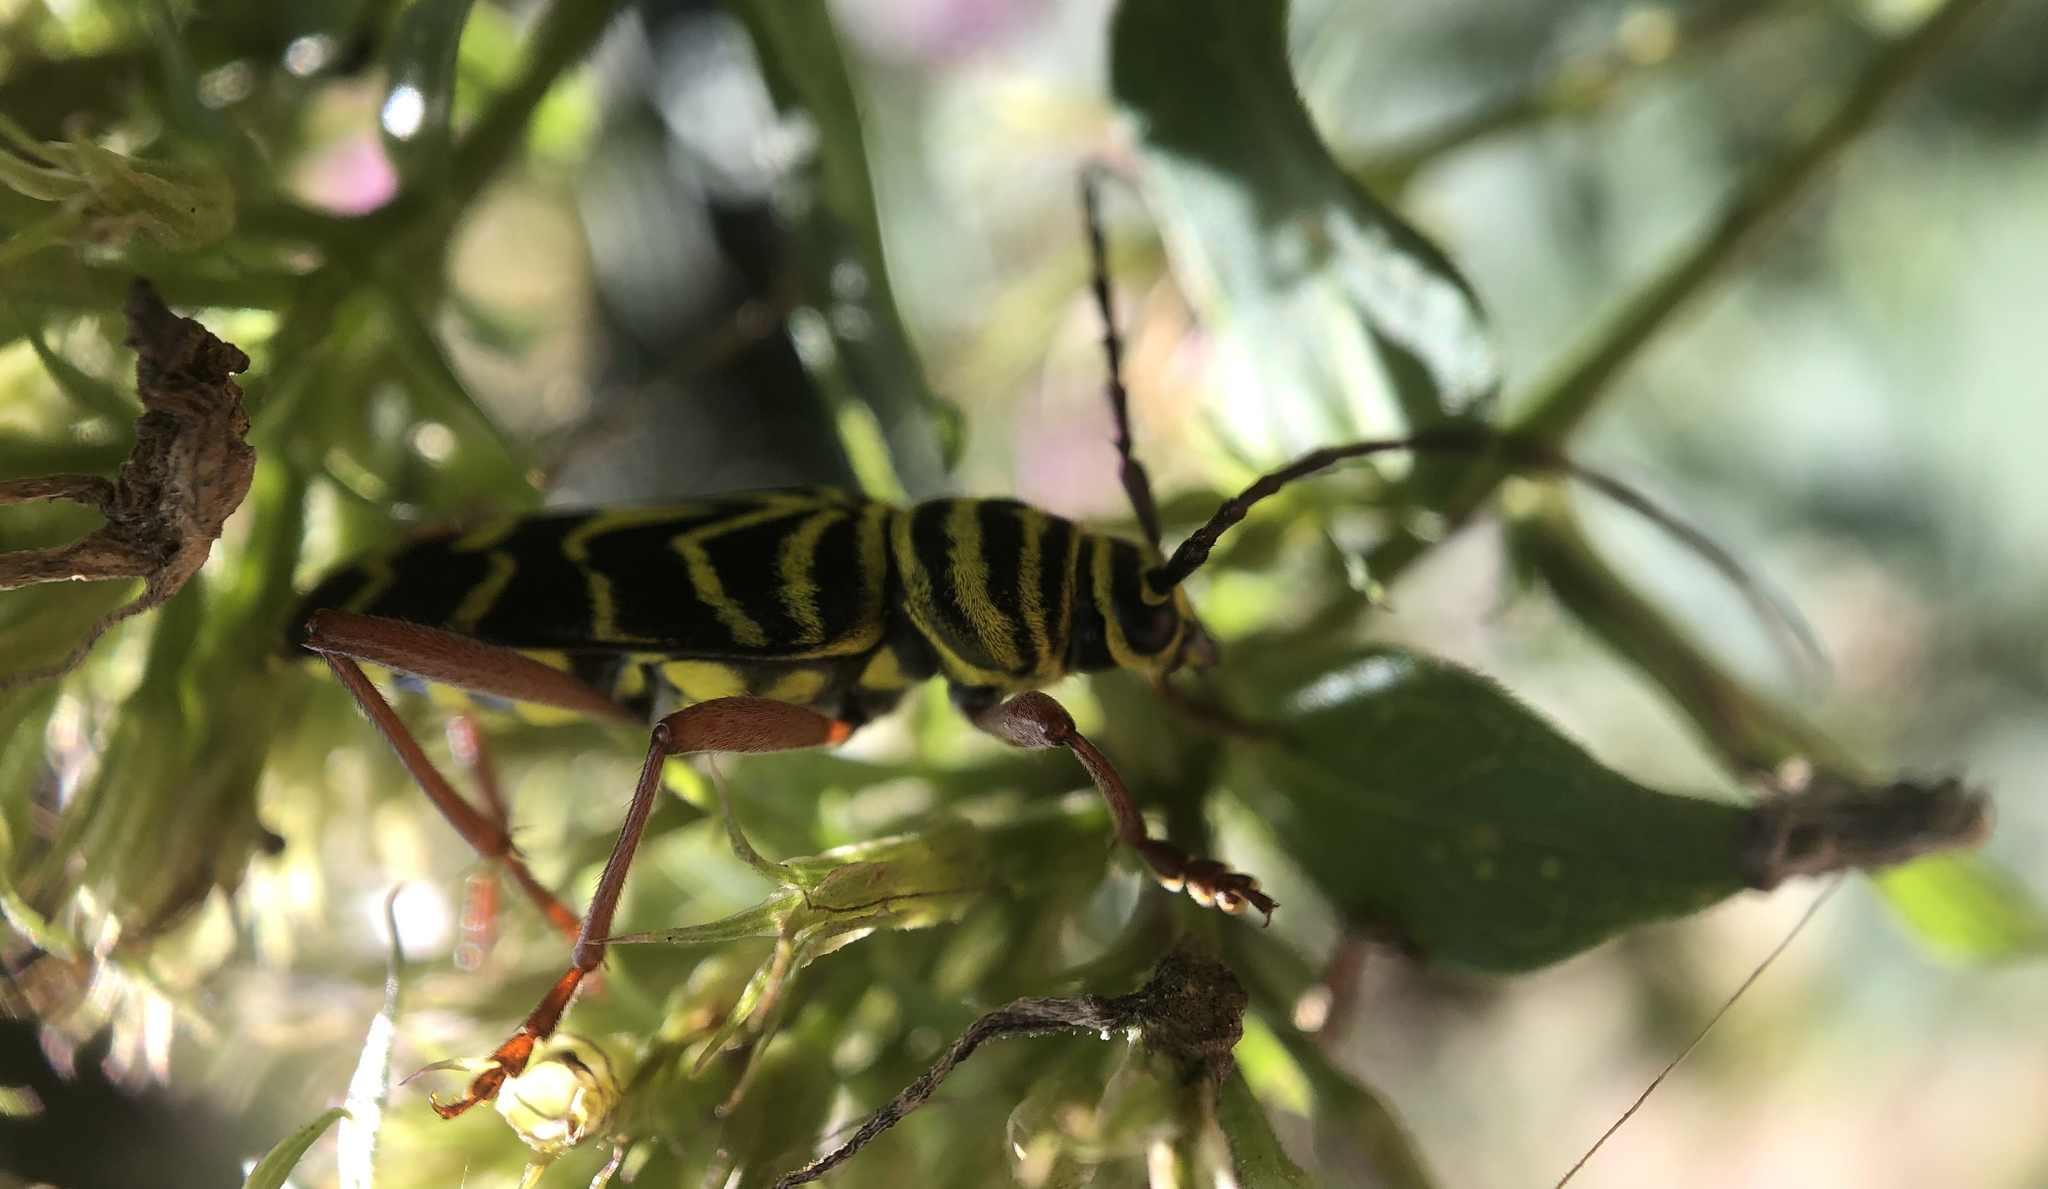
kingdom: Animalia
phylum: Arthropoda
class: Insecta
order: Coleoptera
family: Cerambycidae
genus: Megacyllene
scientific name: Megacyllene robiniae
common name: Locust borer
